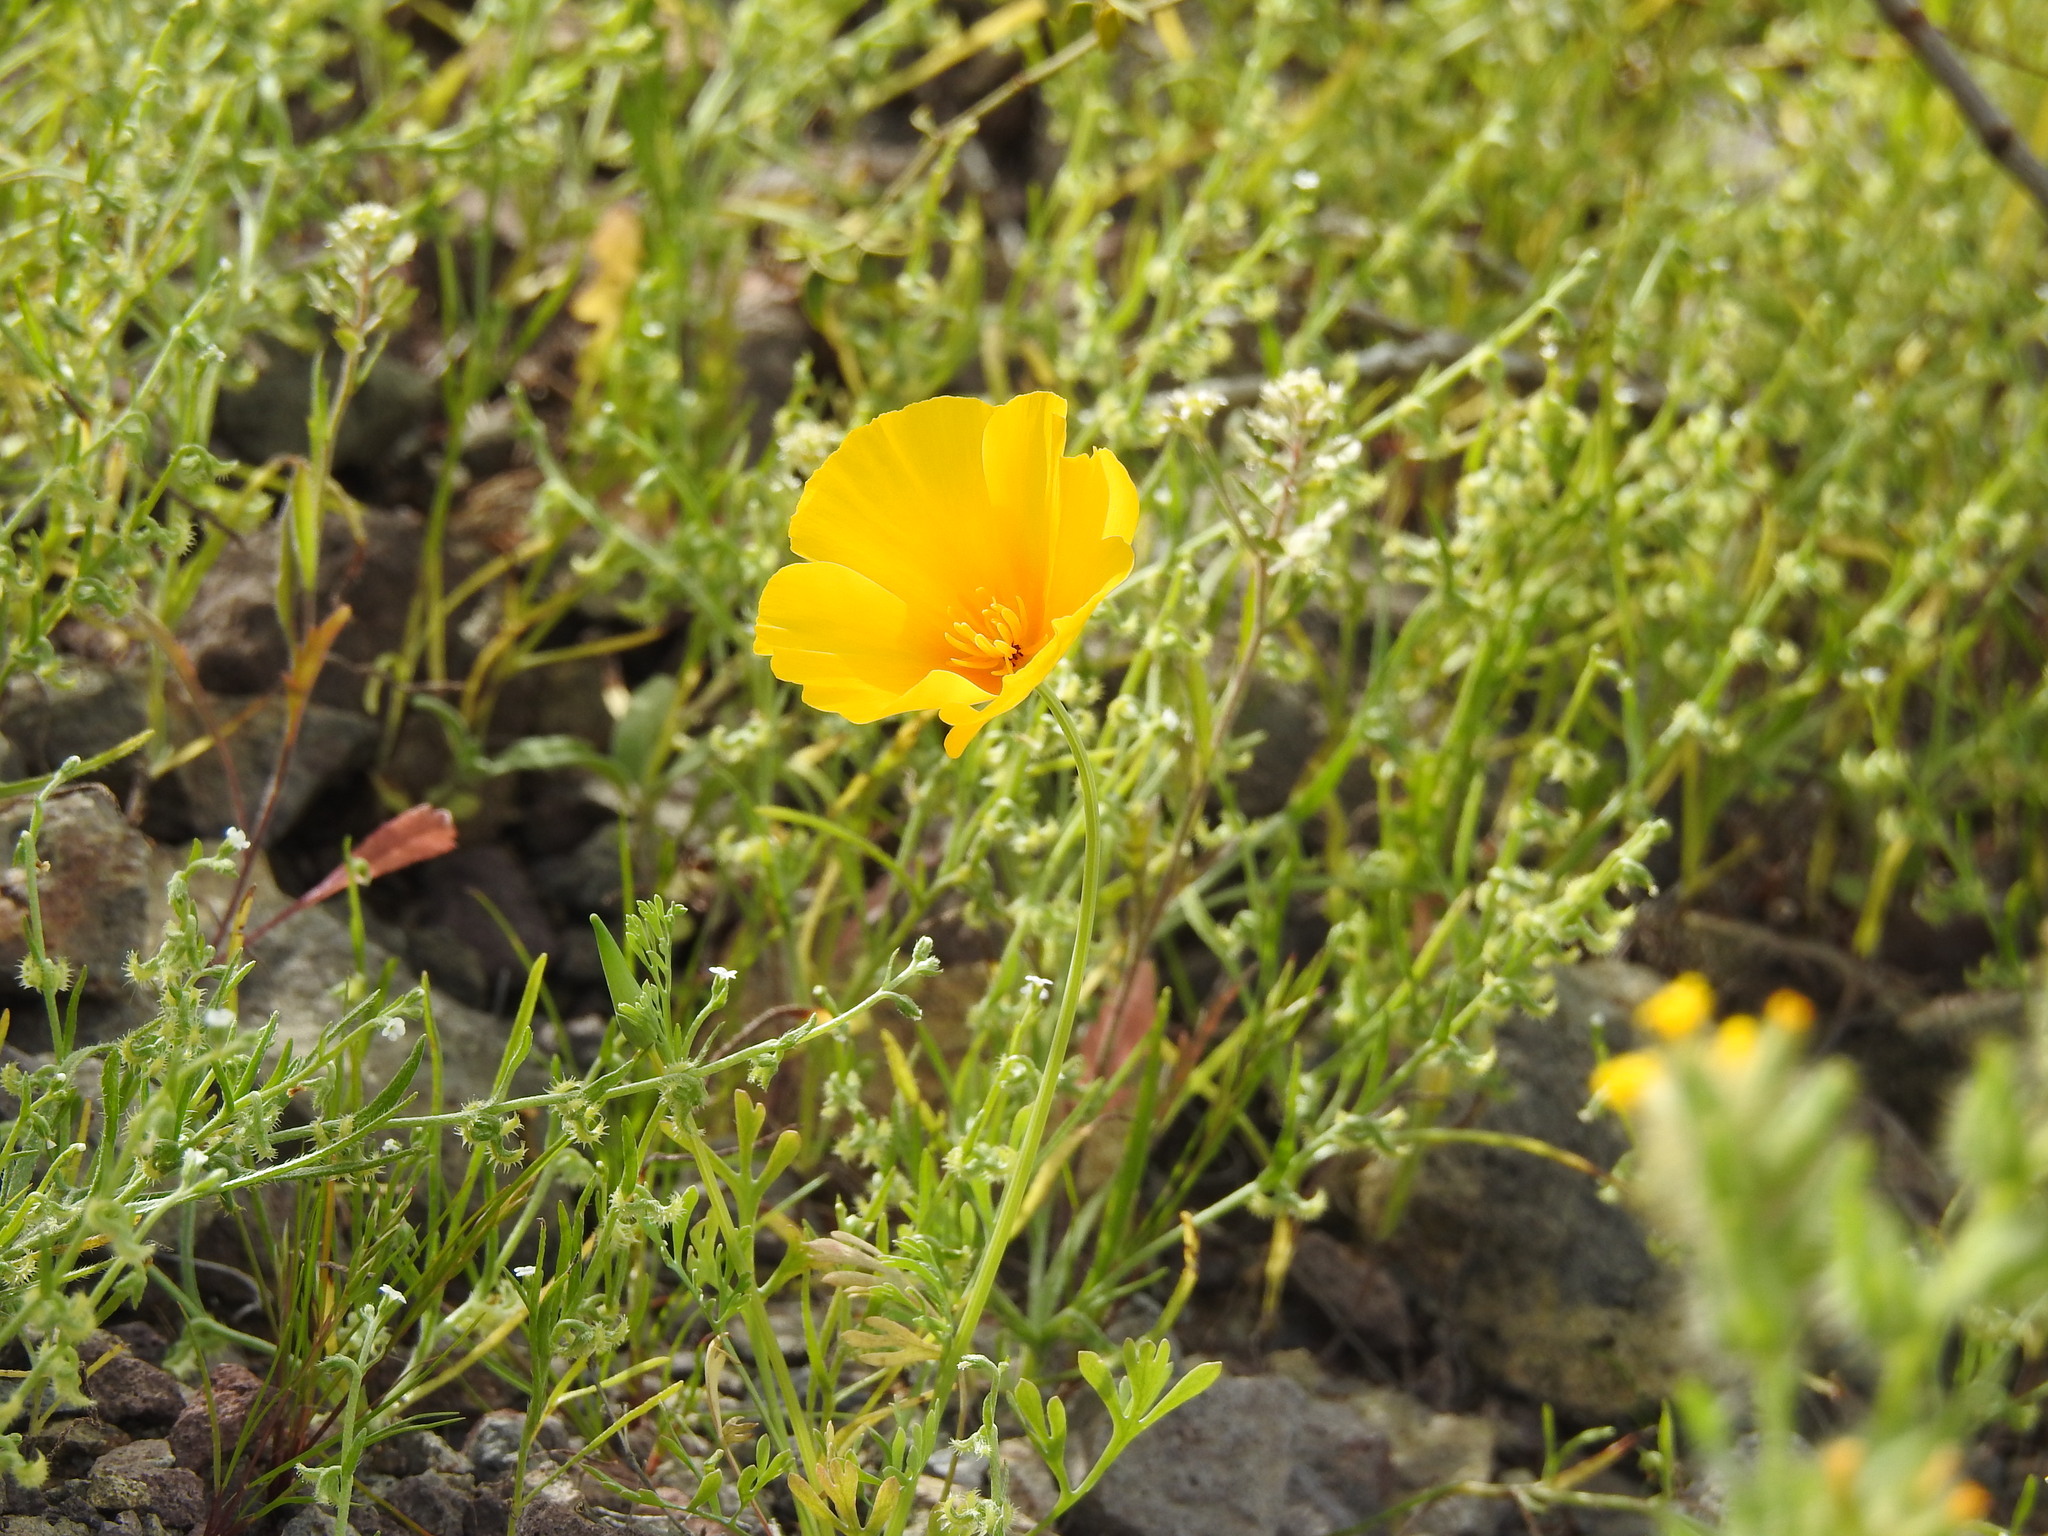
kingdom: Plantae
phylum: Tracheophyta
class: Magnoliopsida
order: Ranunculales
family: Papaveraceae
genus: Eschscholzia
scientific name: Eschscholzia californica
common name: California poppy
